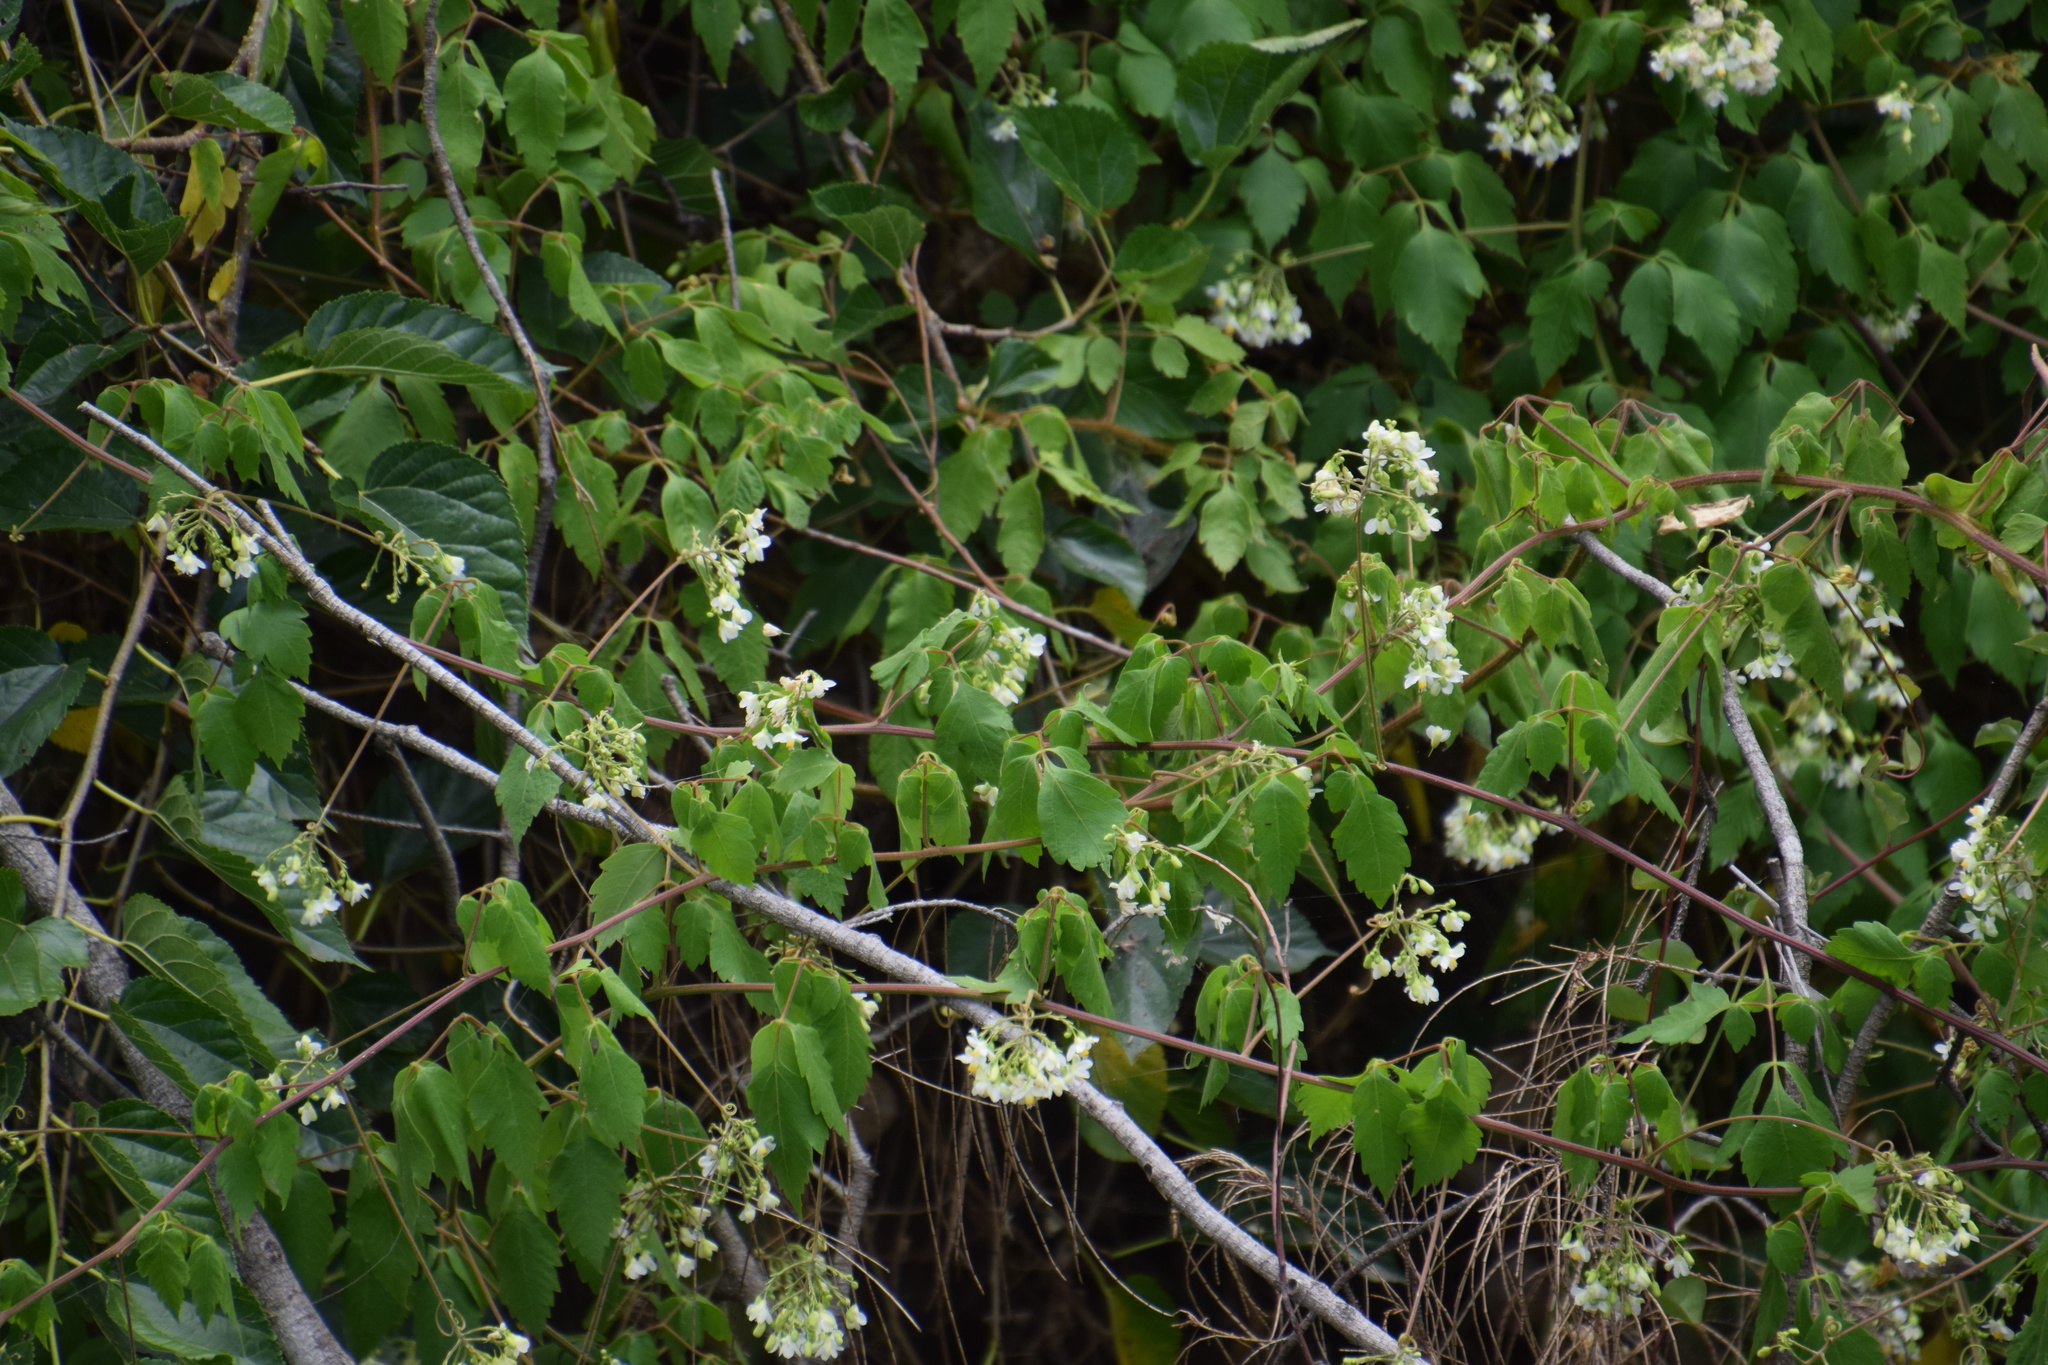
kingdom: Plantae
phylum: Tracheophyta
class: Magnoliopsida
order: Sapindales
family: Sapindaceae
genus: Cardiospermum
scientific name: Cardiospermum grandiflorum
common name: Balloon vine
